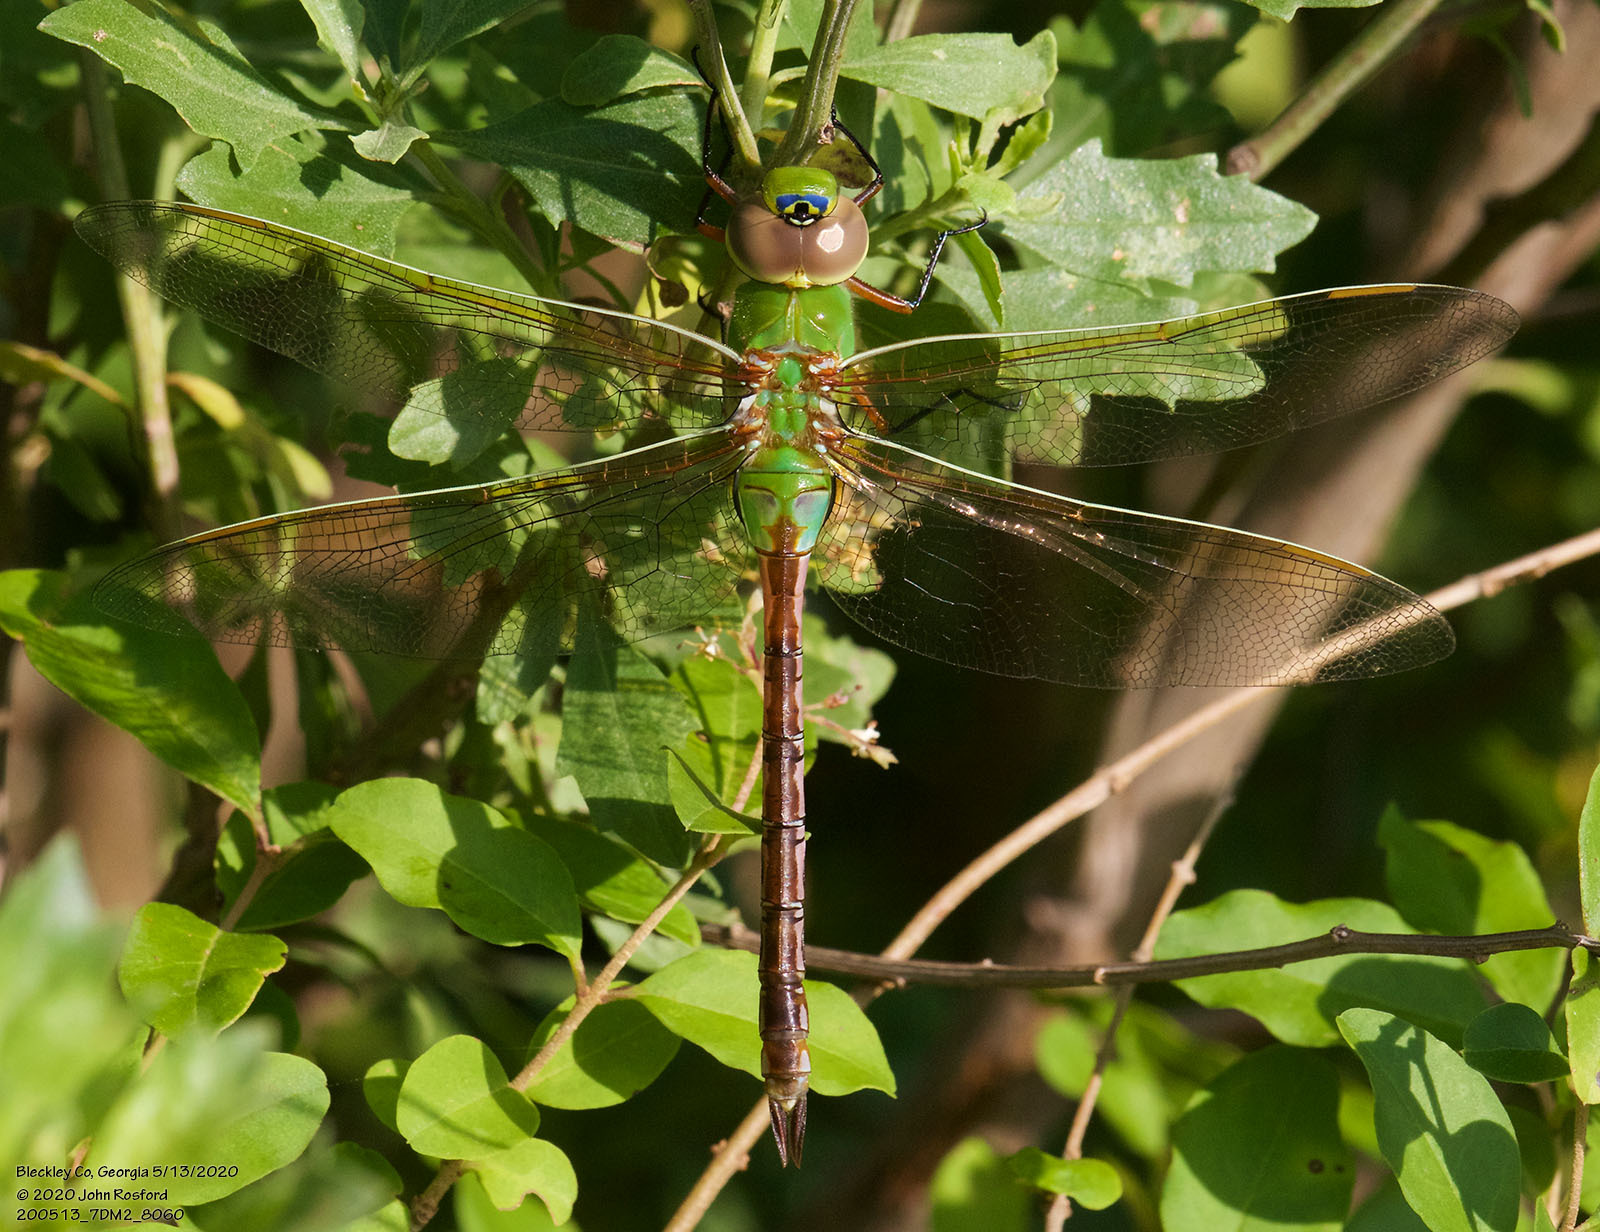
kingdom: Animalia
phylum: Arthropoda
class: Insecta
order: Odonata
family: Aeshnidae
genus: Anax
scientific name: Anax junius
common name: Common green darner
